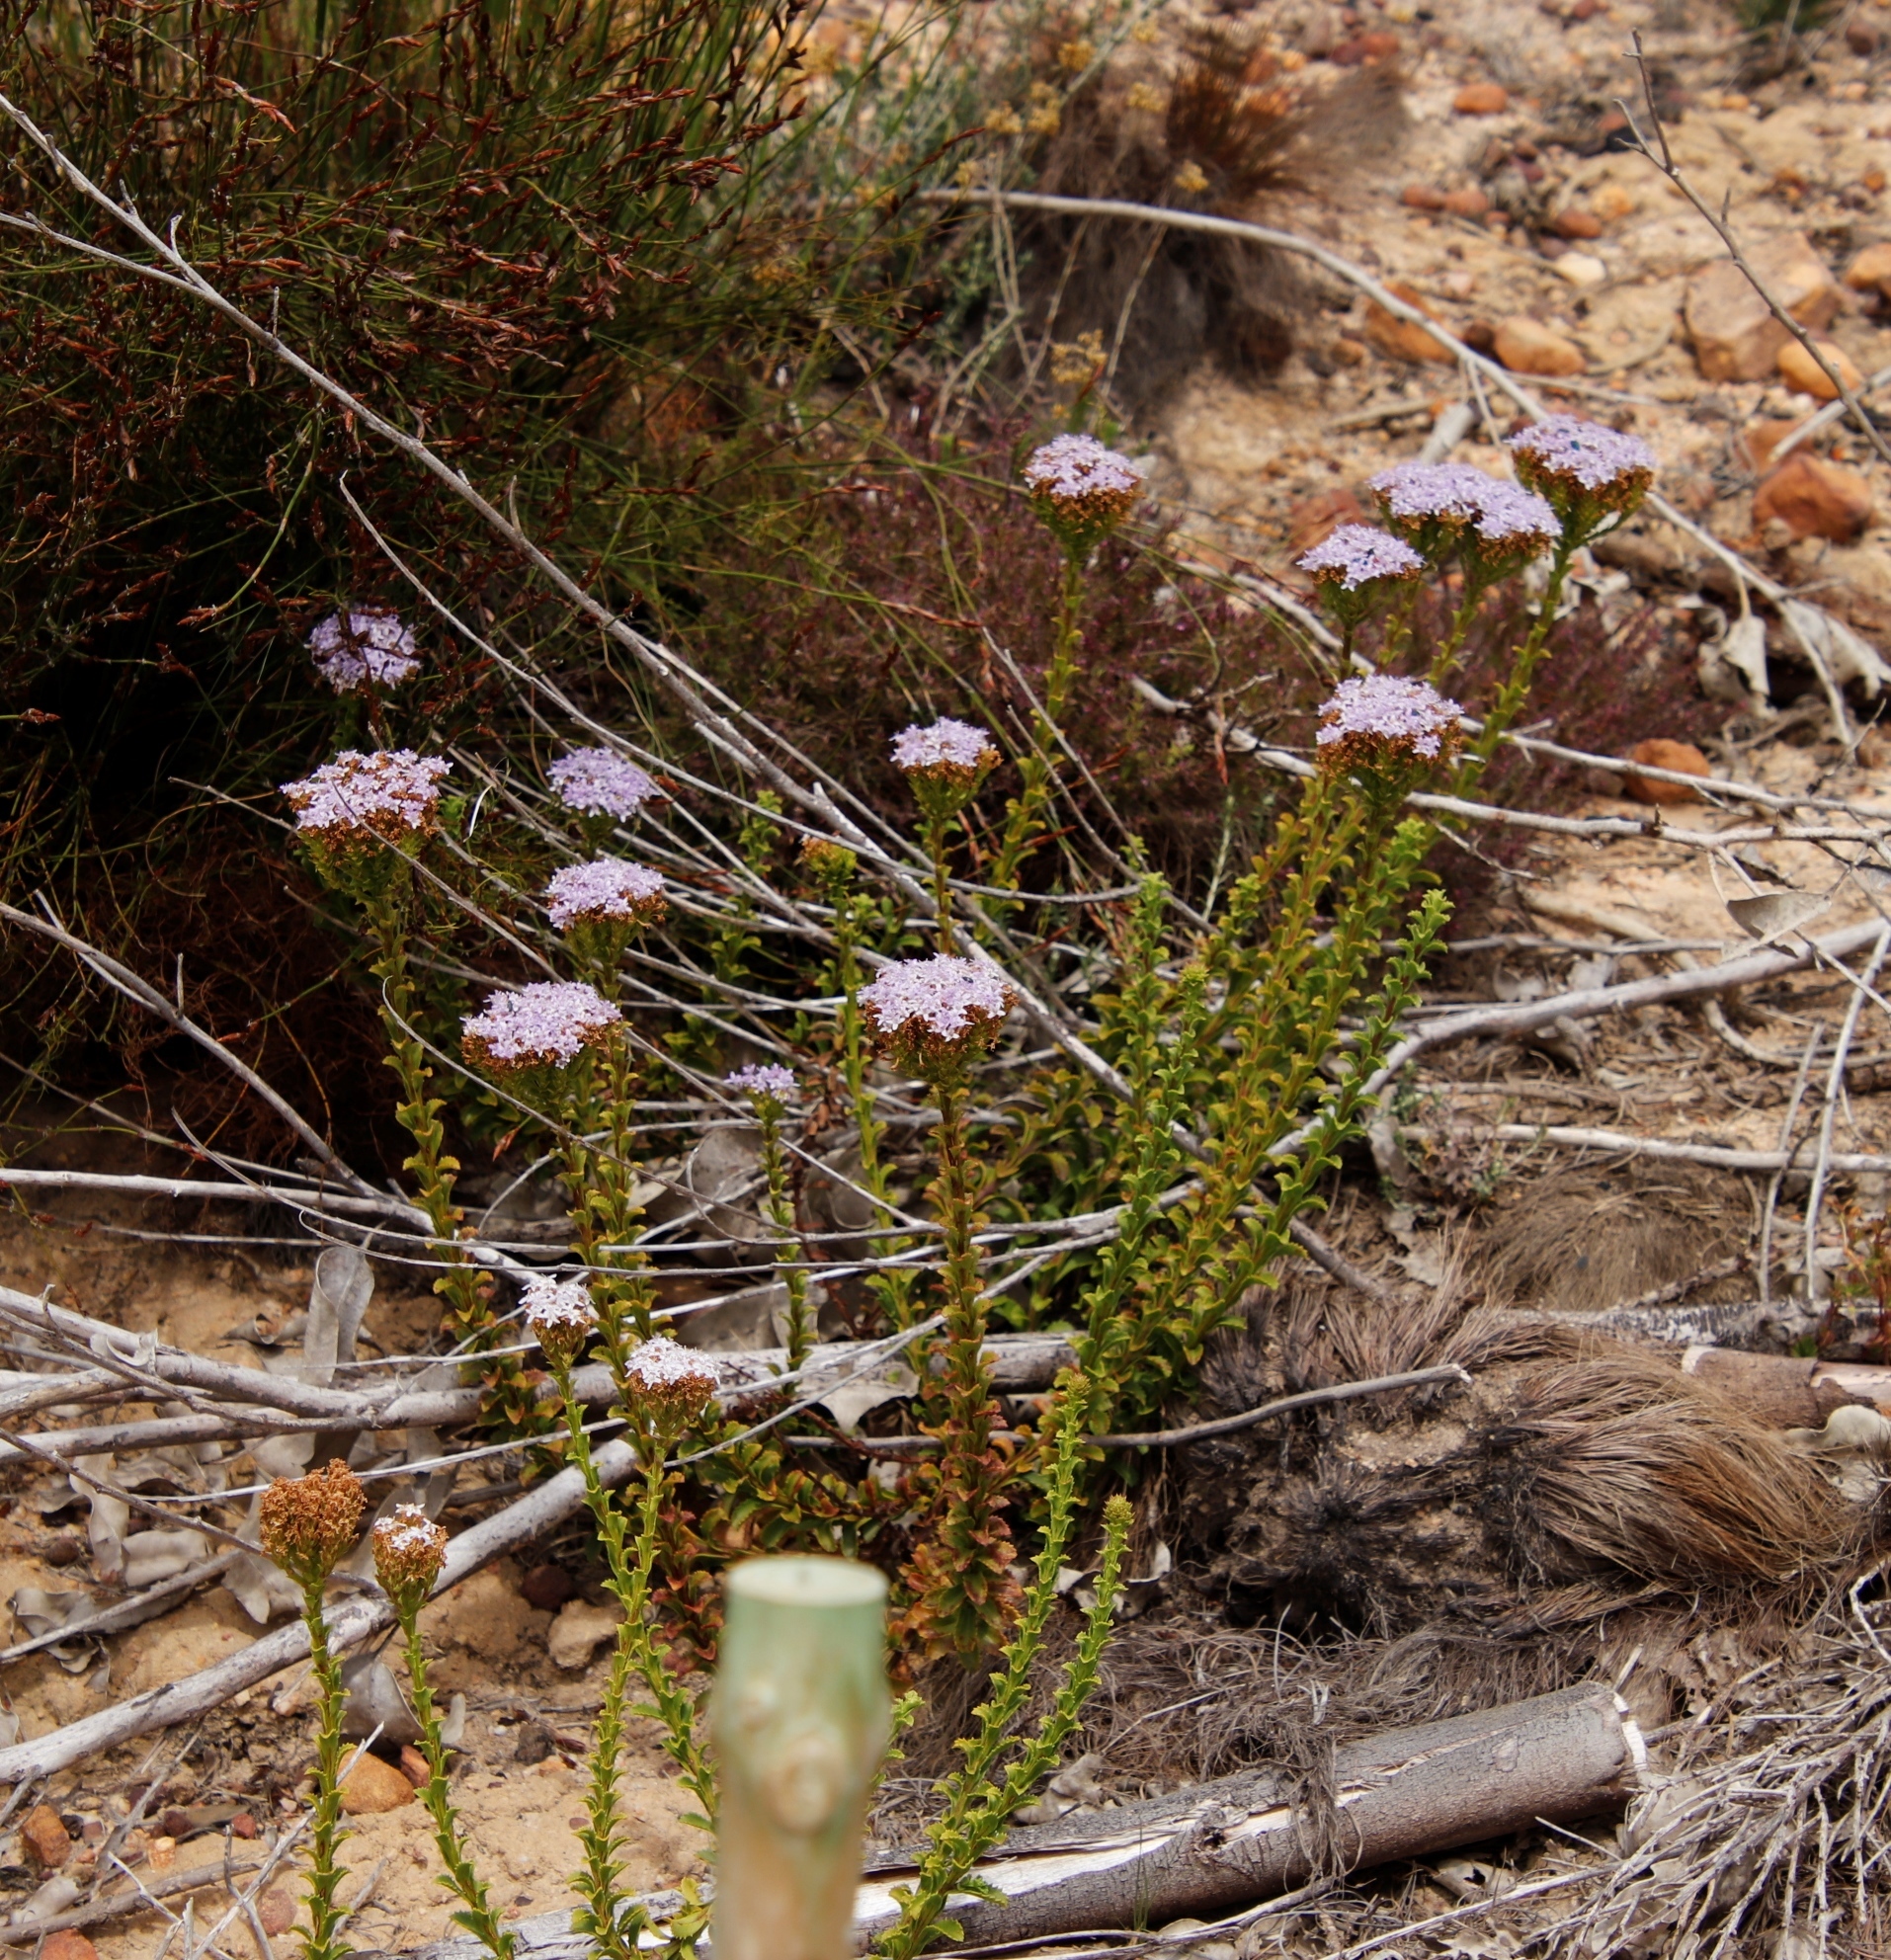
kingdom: Plantae
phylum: Tracheophyta
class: Magnoliopsida
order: Lamiales
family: Scrophulariaceae
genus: Pseudoselago
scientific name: Pseudoselago serrata
